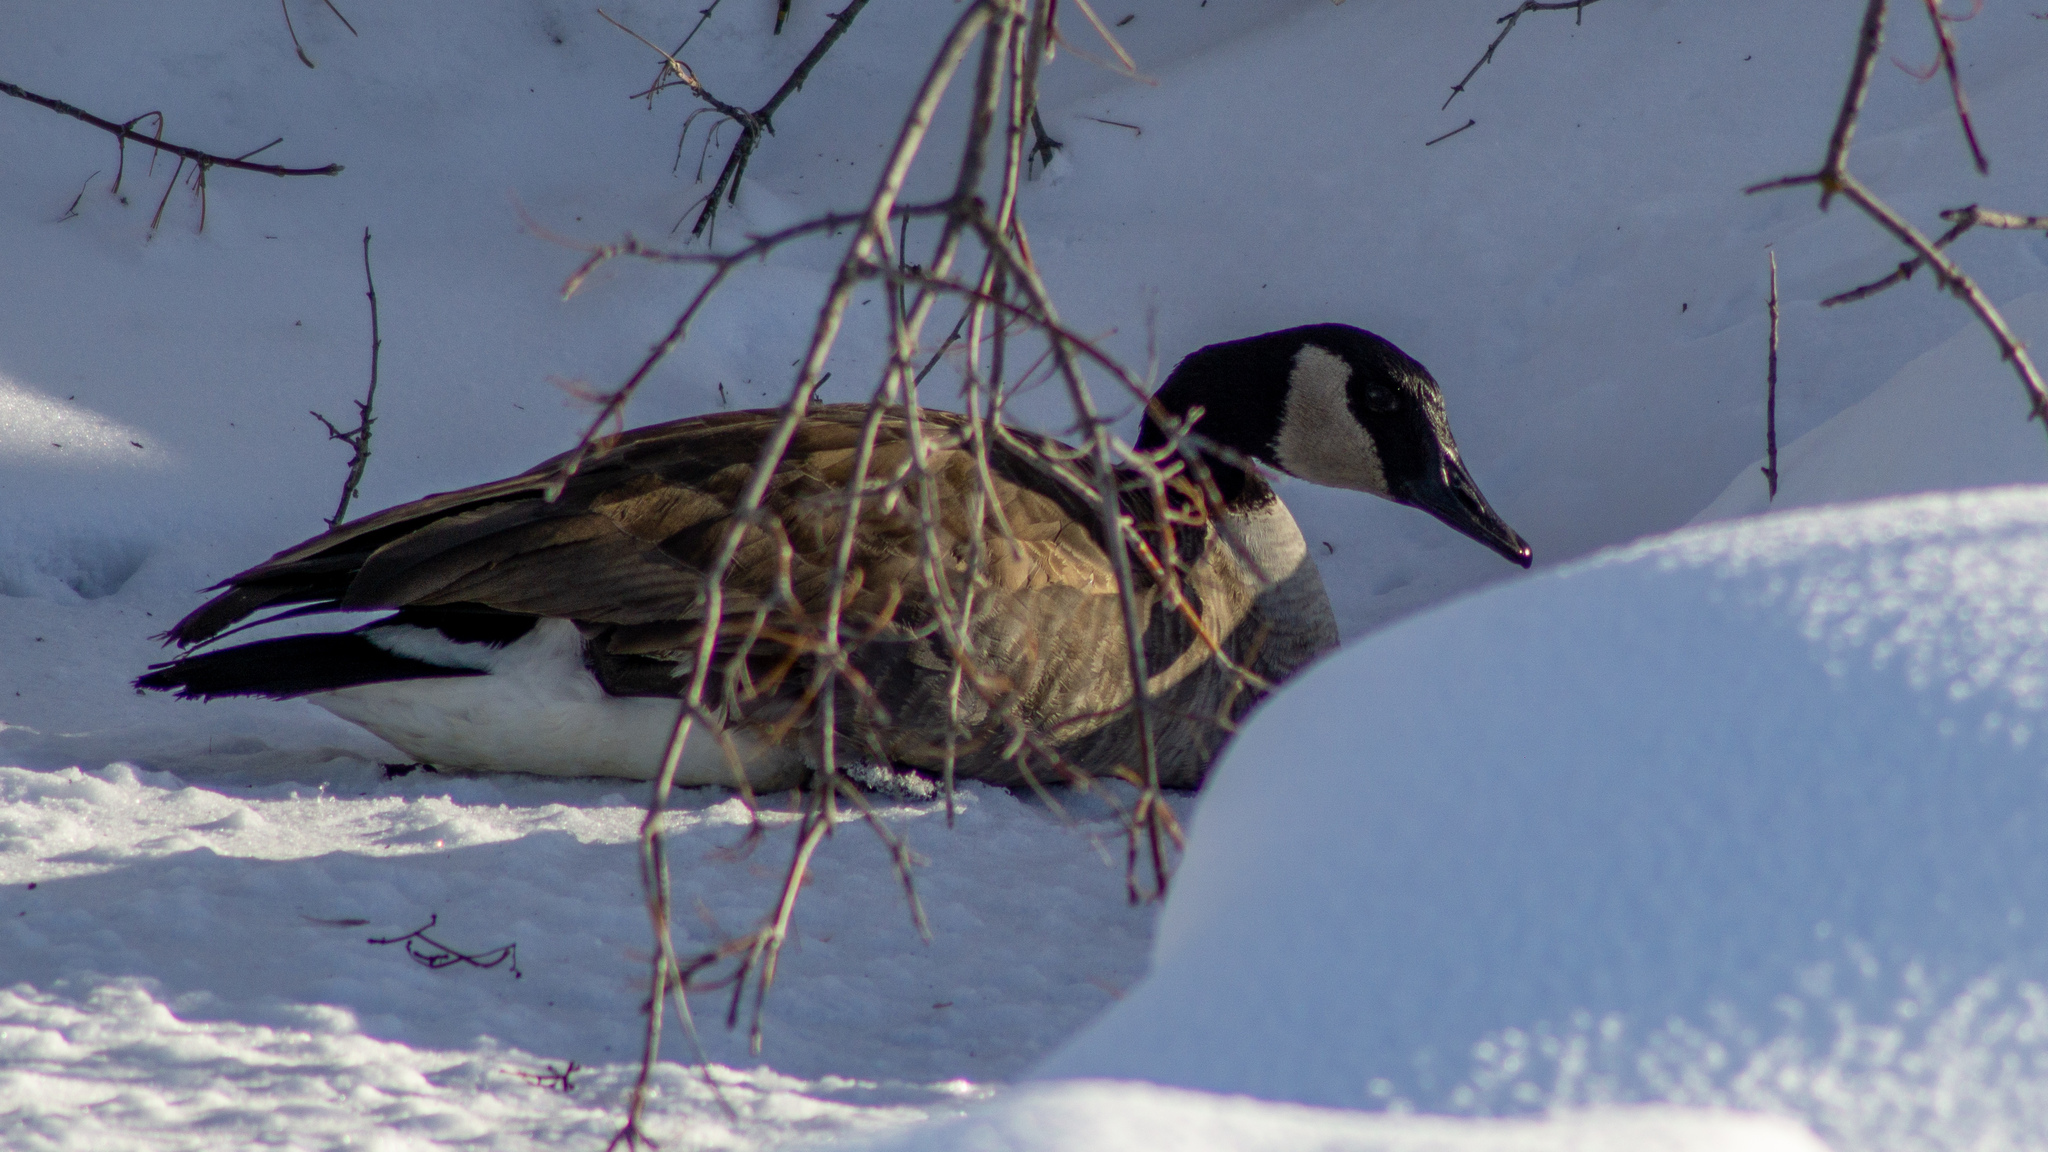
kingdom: Animalia
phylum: Chordata
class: Aves
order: Anseriformes
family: Anatidae
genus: Branta
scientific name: Branta canadensis
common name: Canada goose
